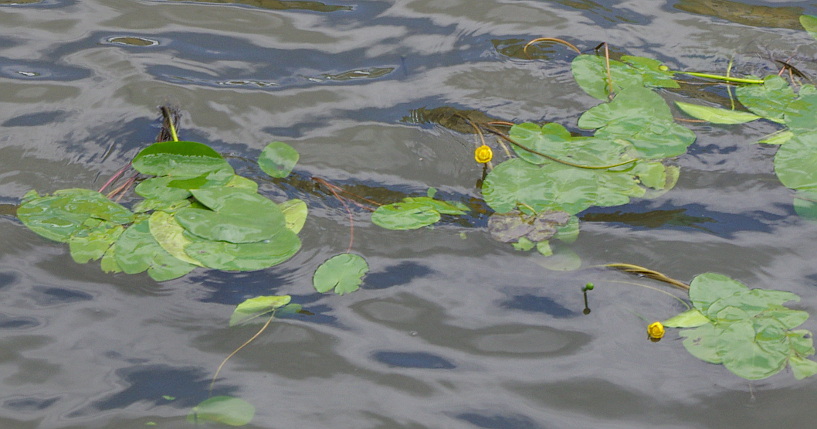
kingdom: Plantae
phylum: Tracheophyta
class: Magnoliopsida
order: Nymphaeales
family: Nymphaeaceae
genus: Nuphar
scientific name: Nuphar lutea
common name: Yellow water-lily
